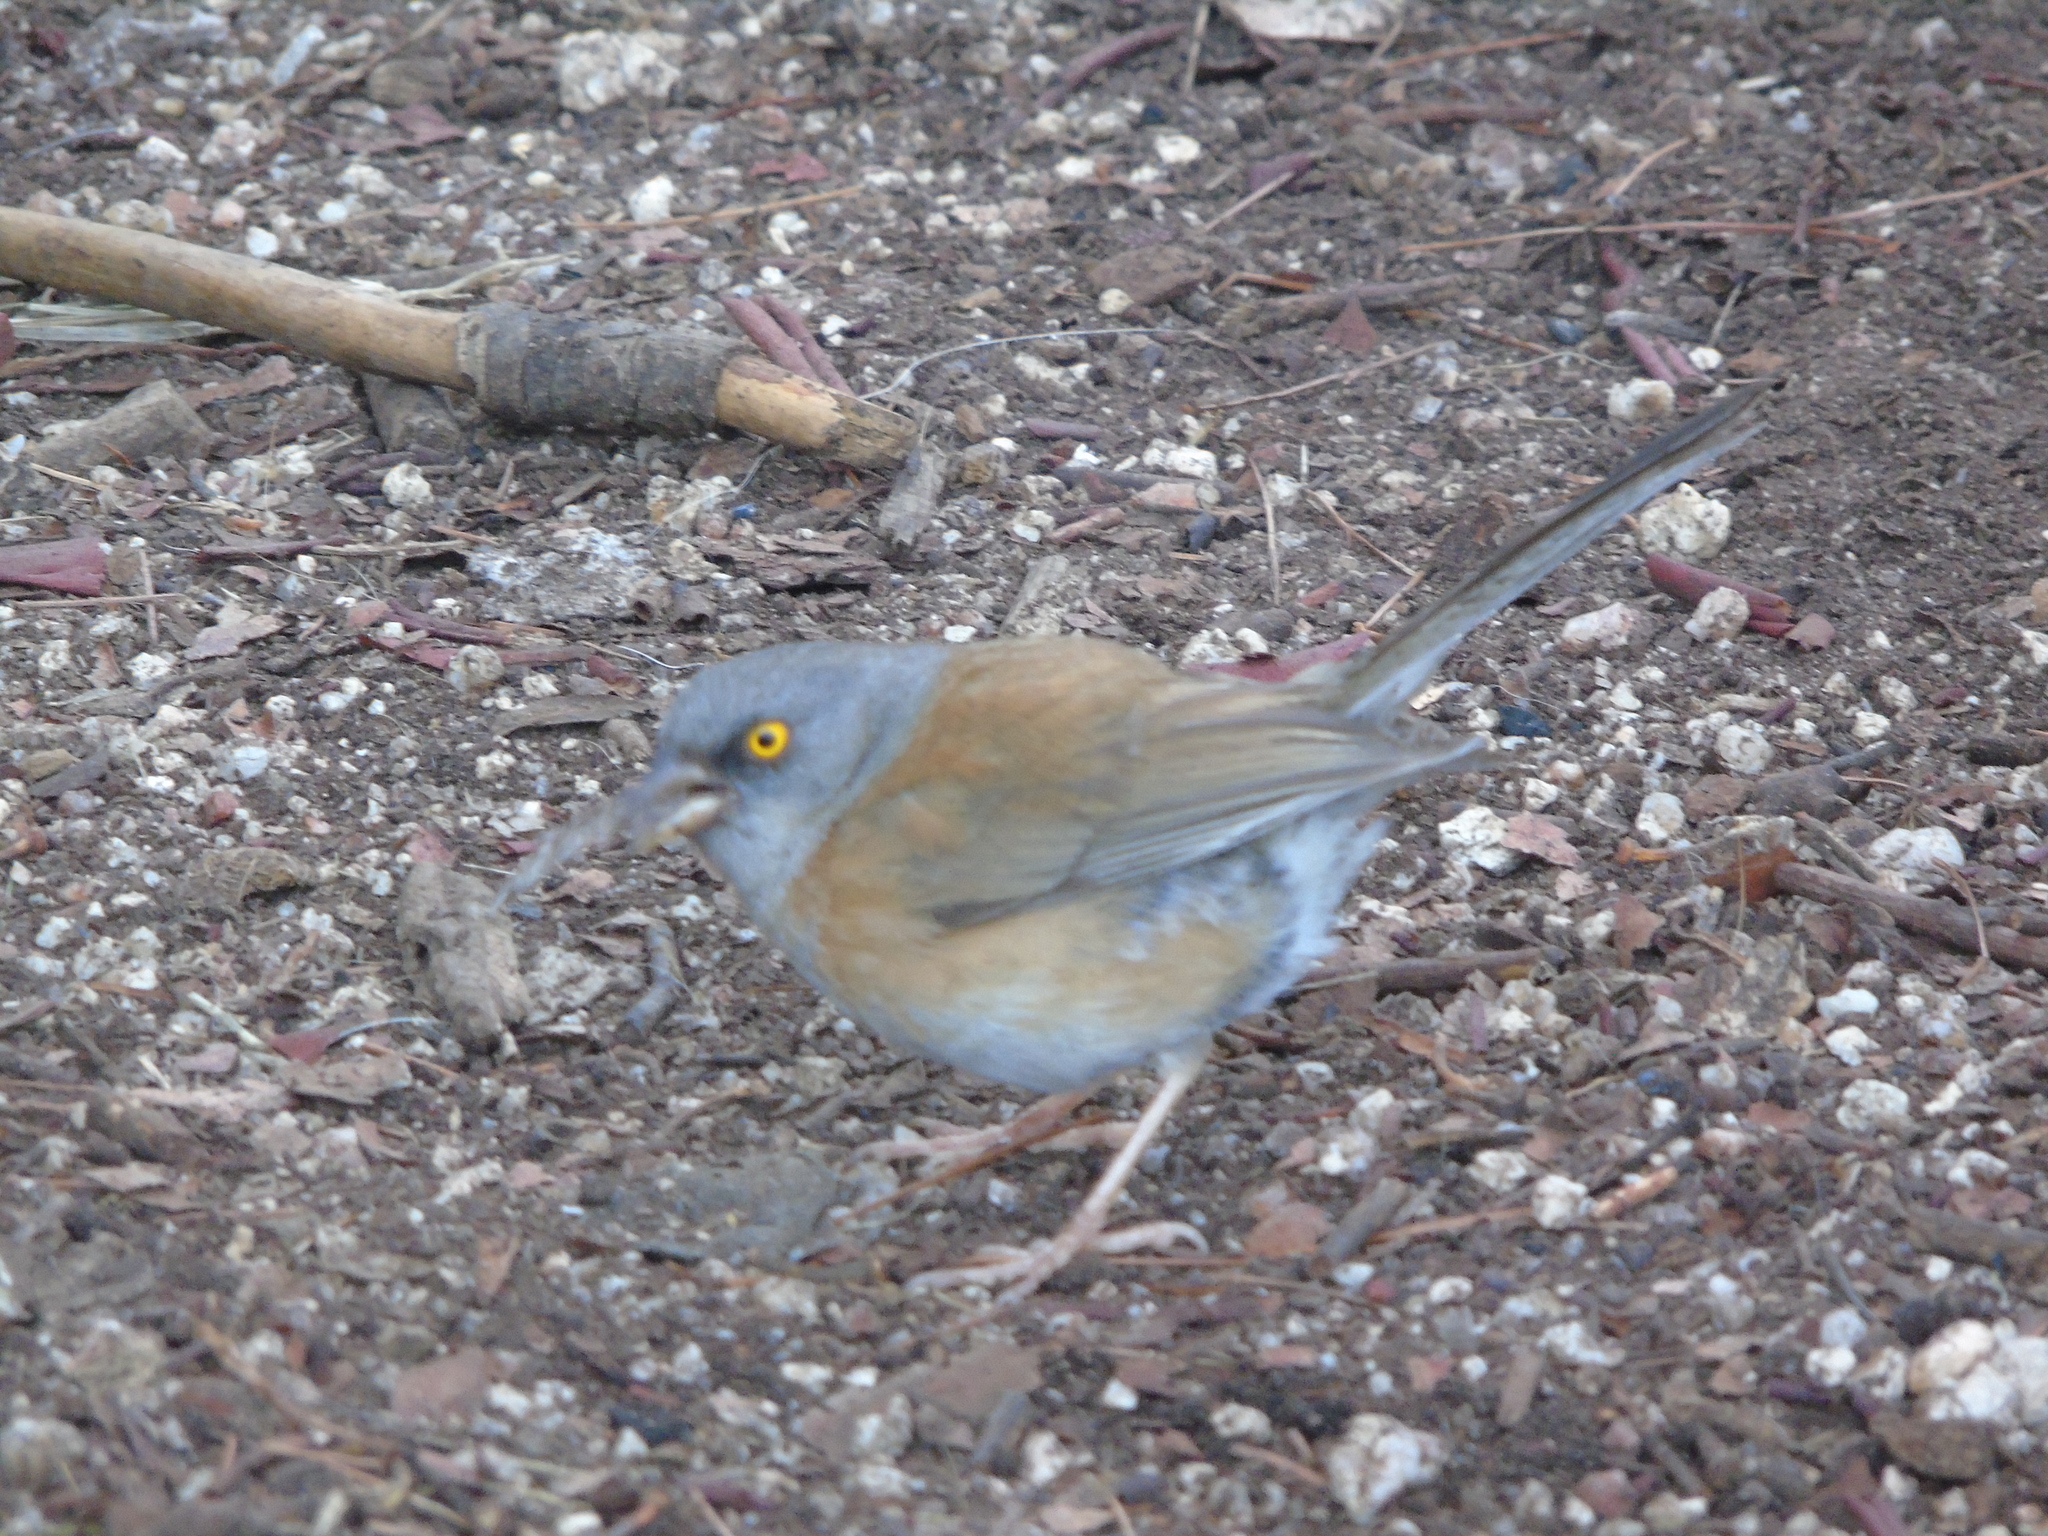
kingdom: Animalia
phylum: Chordata
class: Aves
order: Passeriformes
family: Passerellidae
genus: Junco
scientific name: Junco bairdi
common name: Baird's junco
